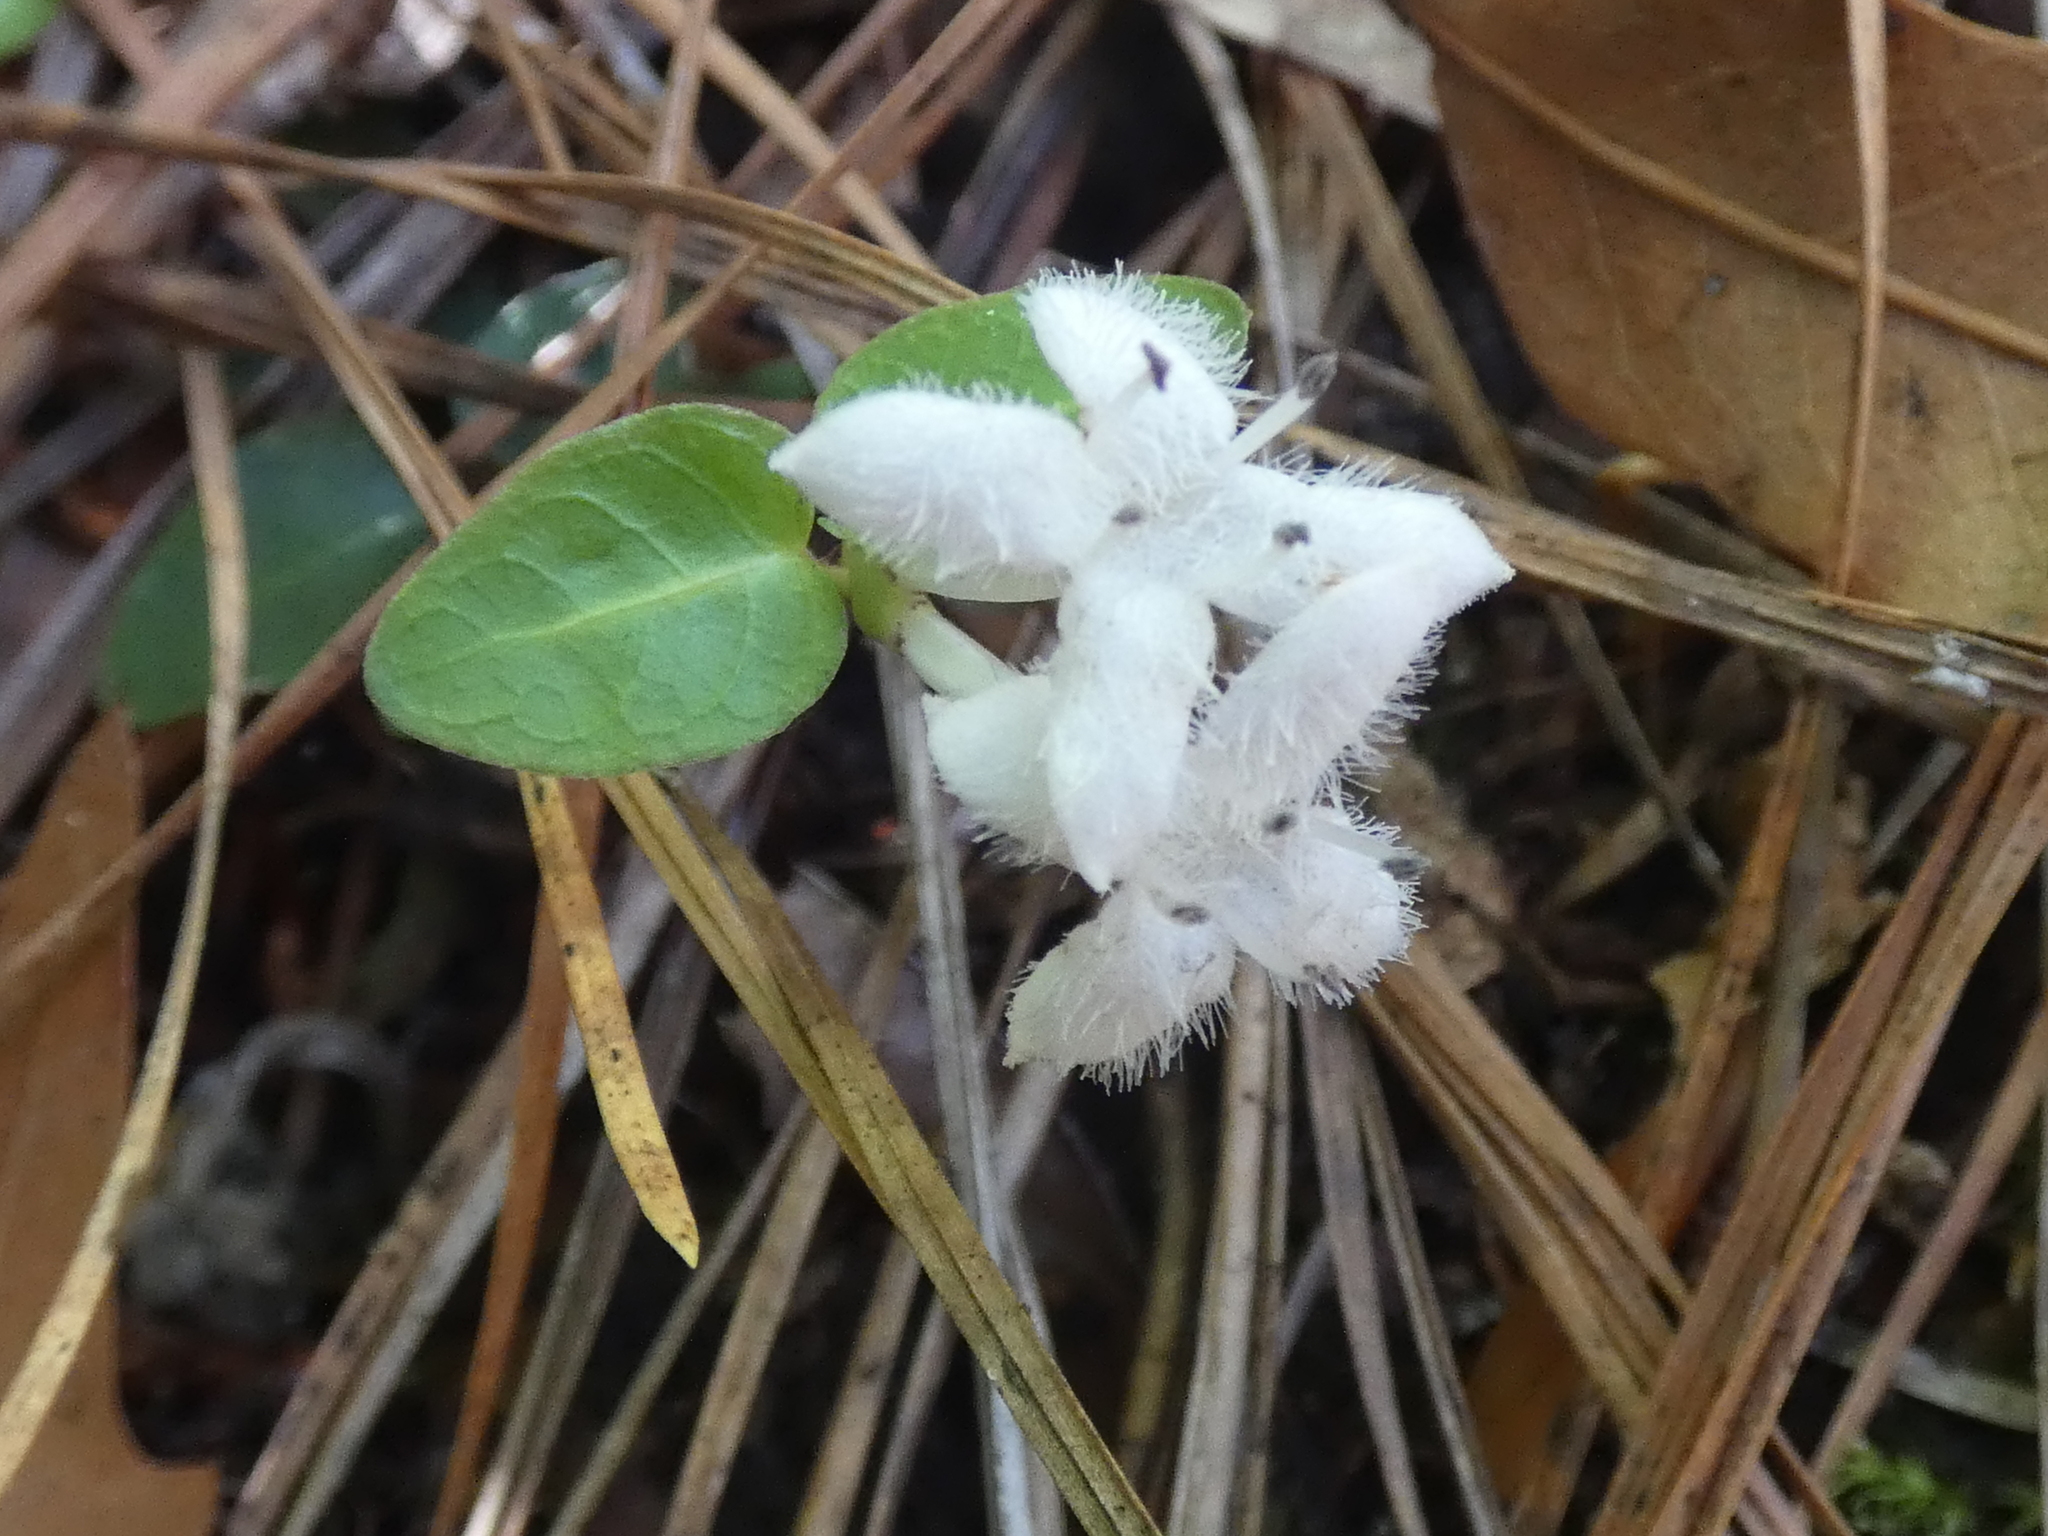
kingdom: Plantae
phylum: Tracheophyta
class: Magnoliopsida
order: Gentianales
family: Rubiaceae
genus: Mitchella
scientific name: Mitchella repens
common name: Partridge-berry
